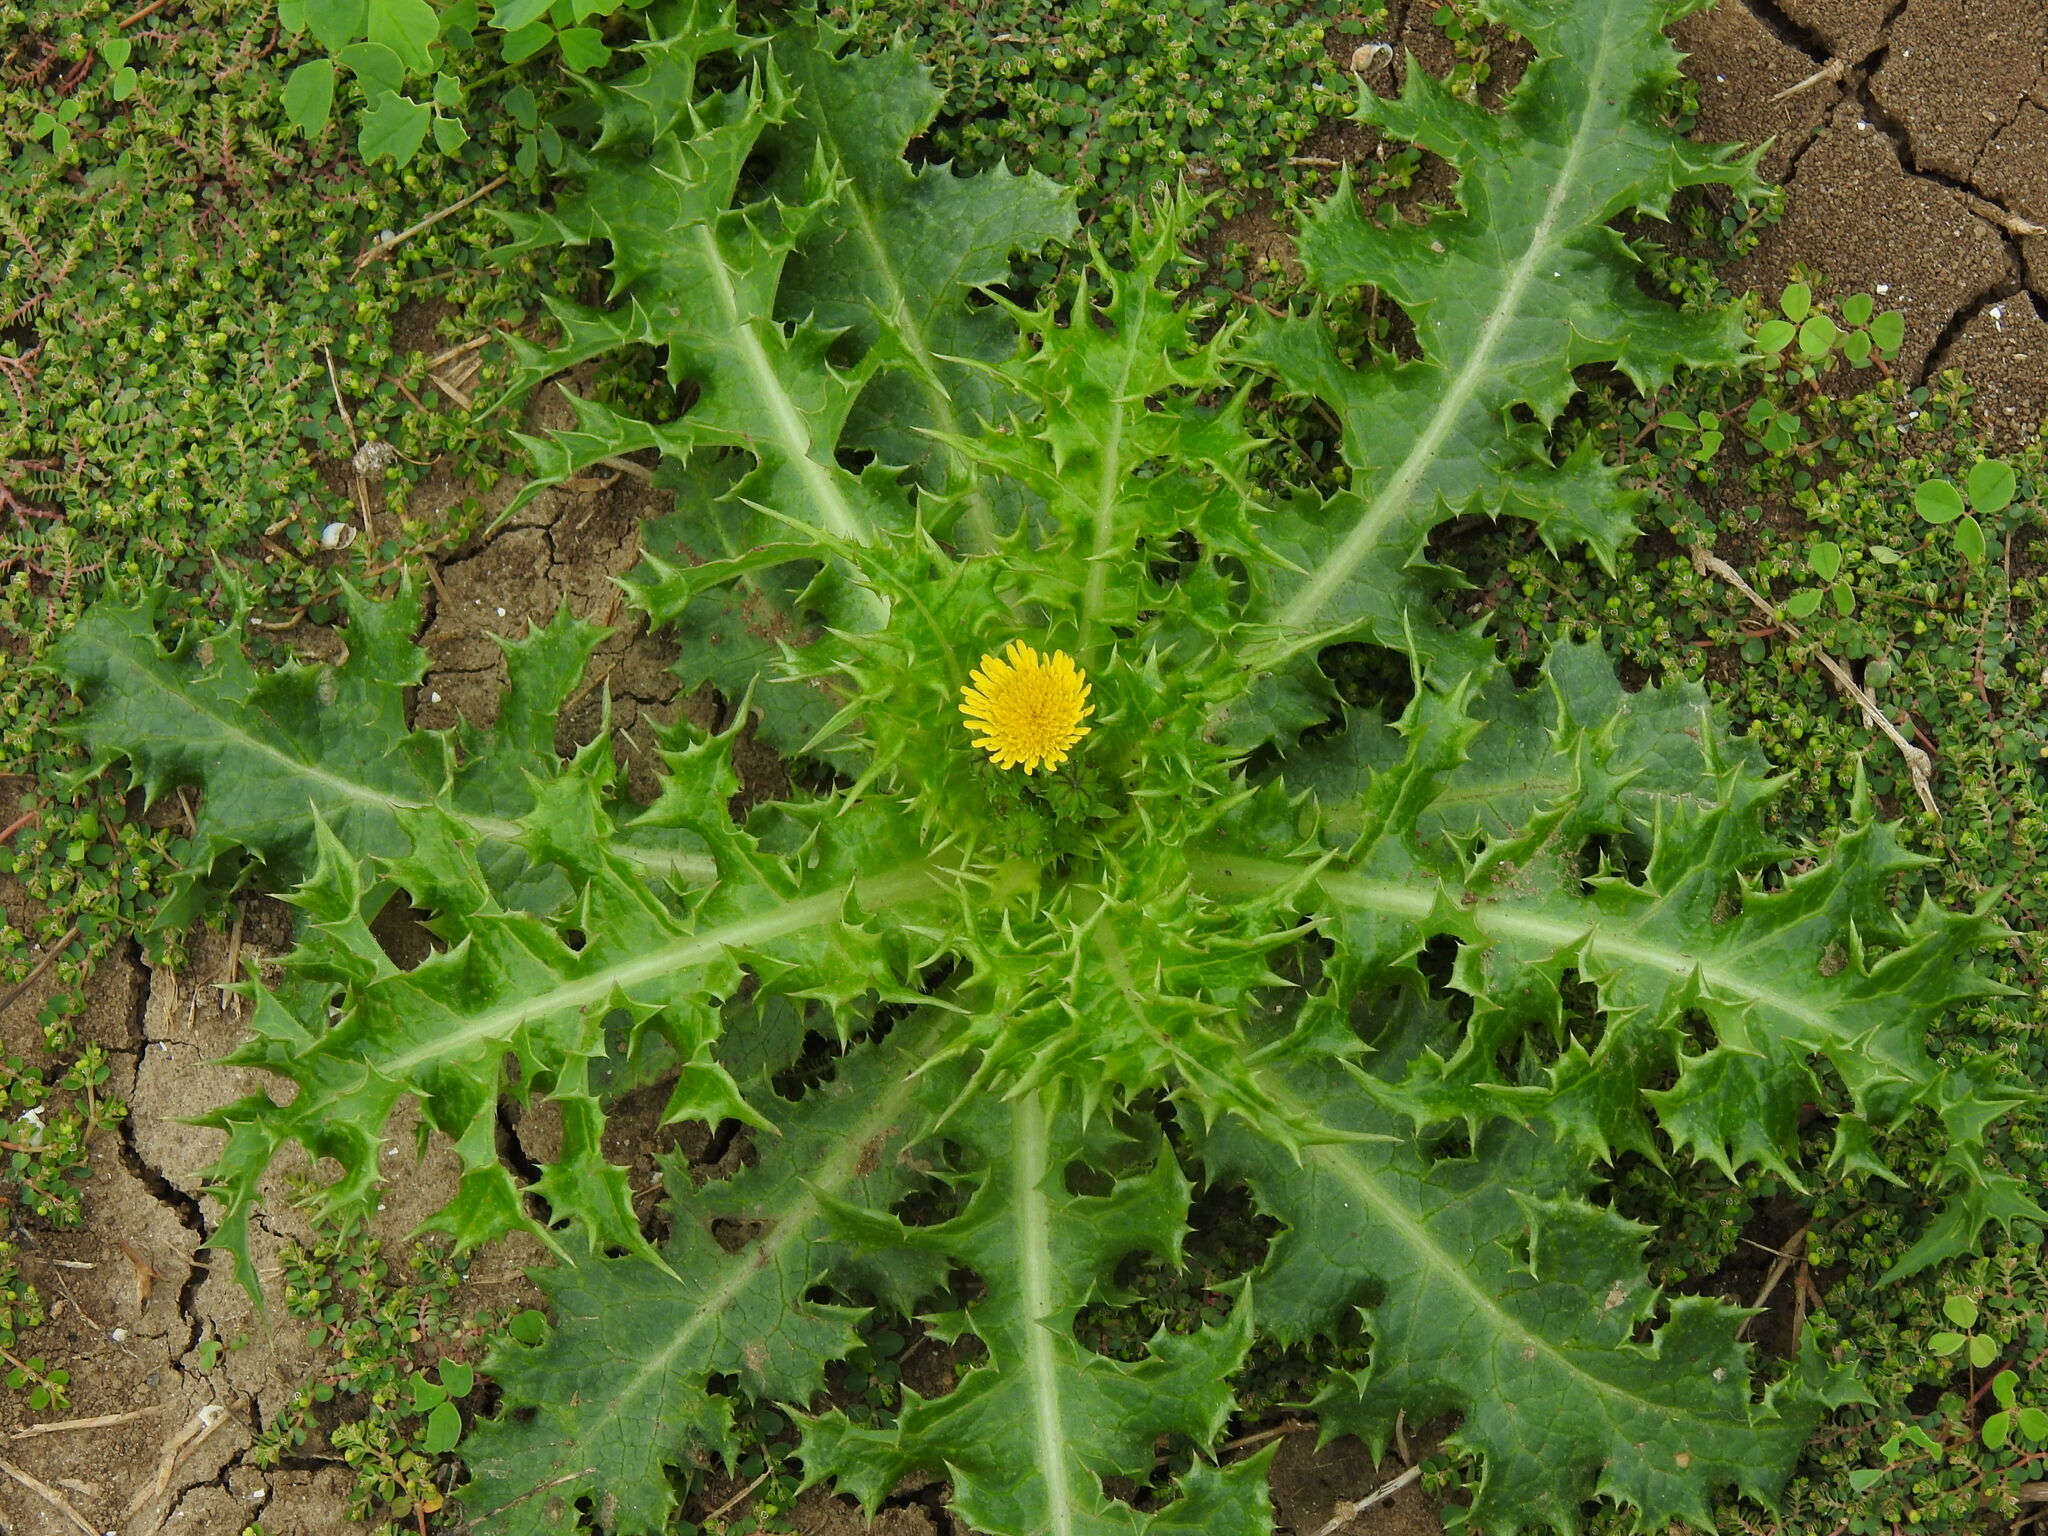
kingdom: Plantae
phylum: Tracheophyta
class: Magnoliopsida
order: Asterales
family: Asteraceae
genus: Sonchus
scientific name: Sonchus asper
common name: Prickly sow-thistle
